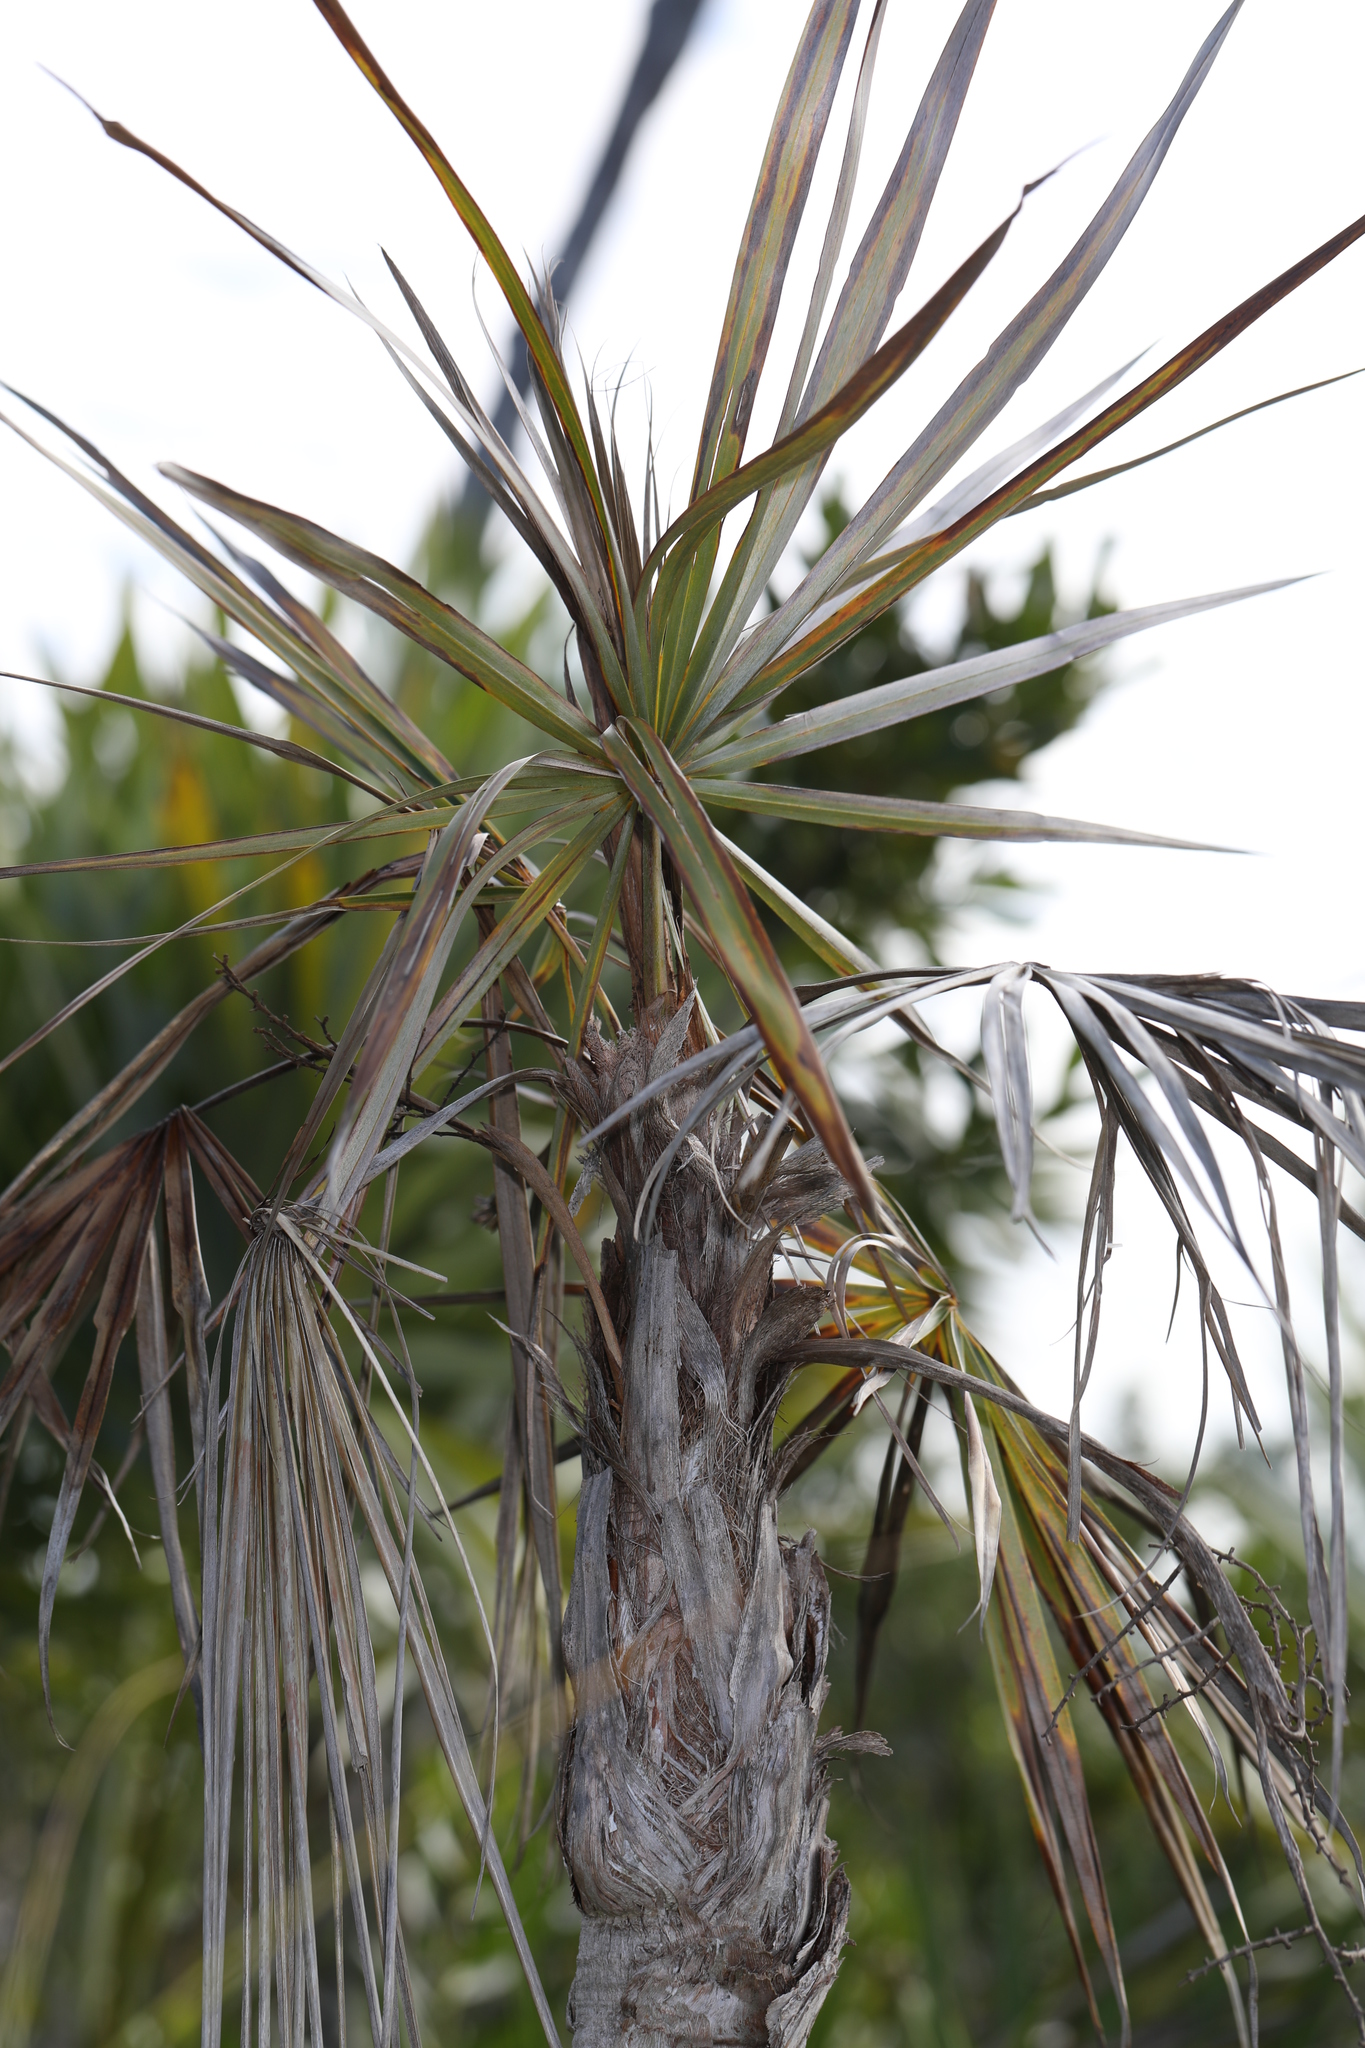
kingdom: Plantae
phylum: Tracheophyta
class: Liliopsida
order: Arecales
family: Arecaceae
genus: Coccothrinax
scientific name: Coccothrinax argentata
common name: Florida silver palm
